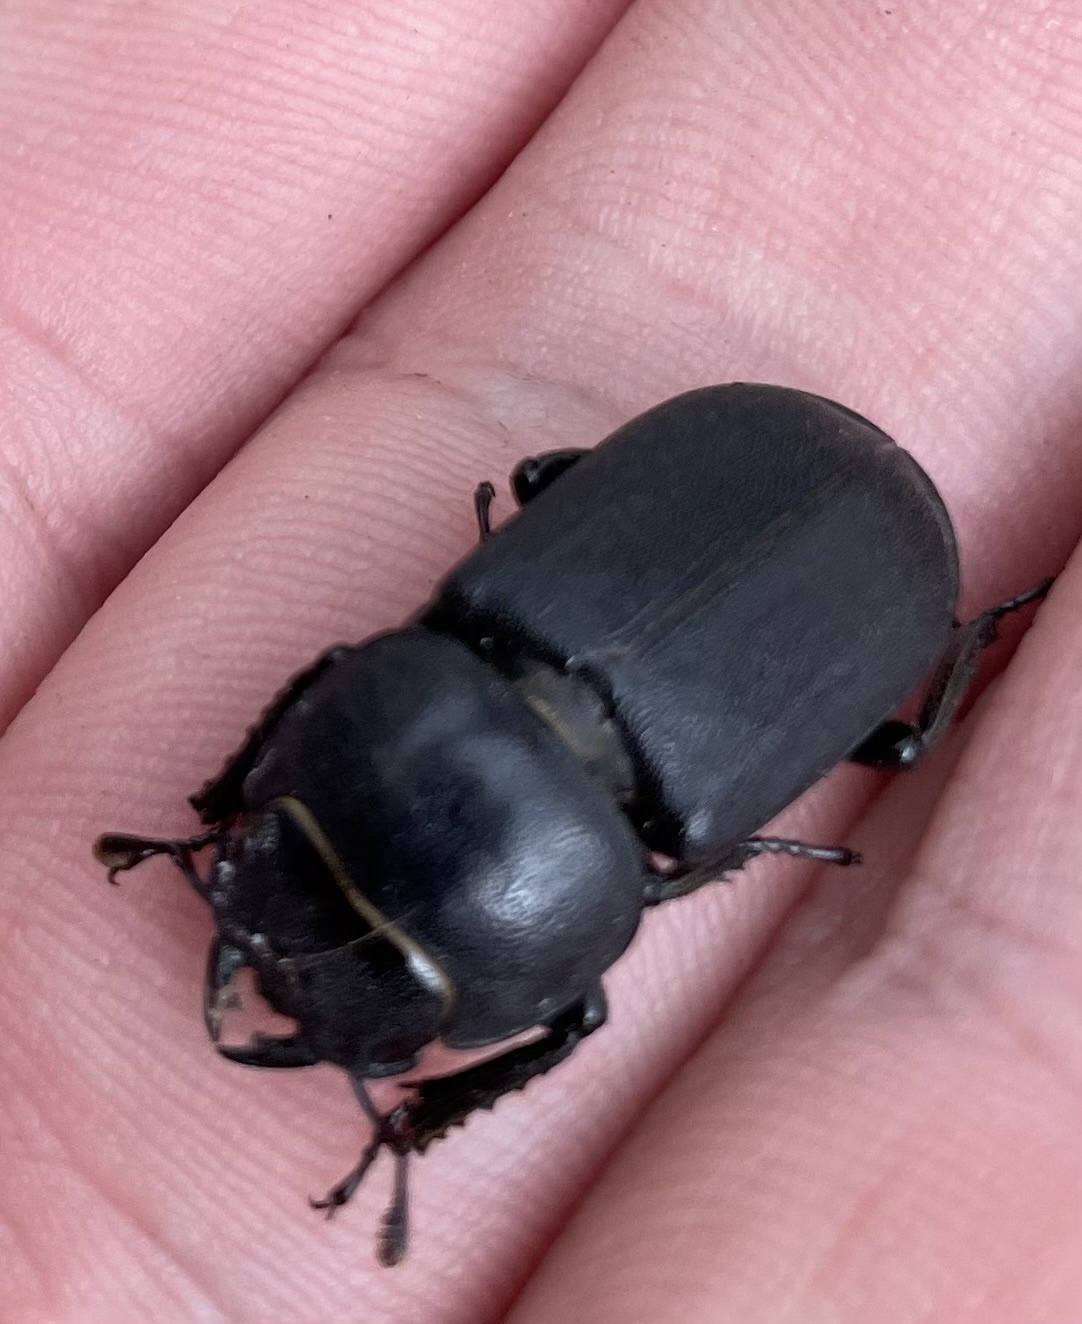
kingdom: Animalia
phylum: Arthropoda
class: Insecta
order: Coleoptera
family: Lucanidae
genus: Dorcus
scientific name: Dorcus parallelipipedus
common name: Lesser stag beetle
